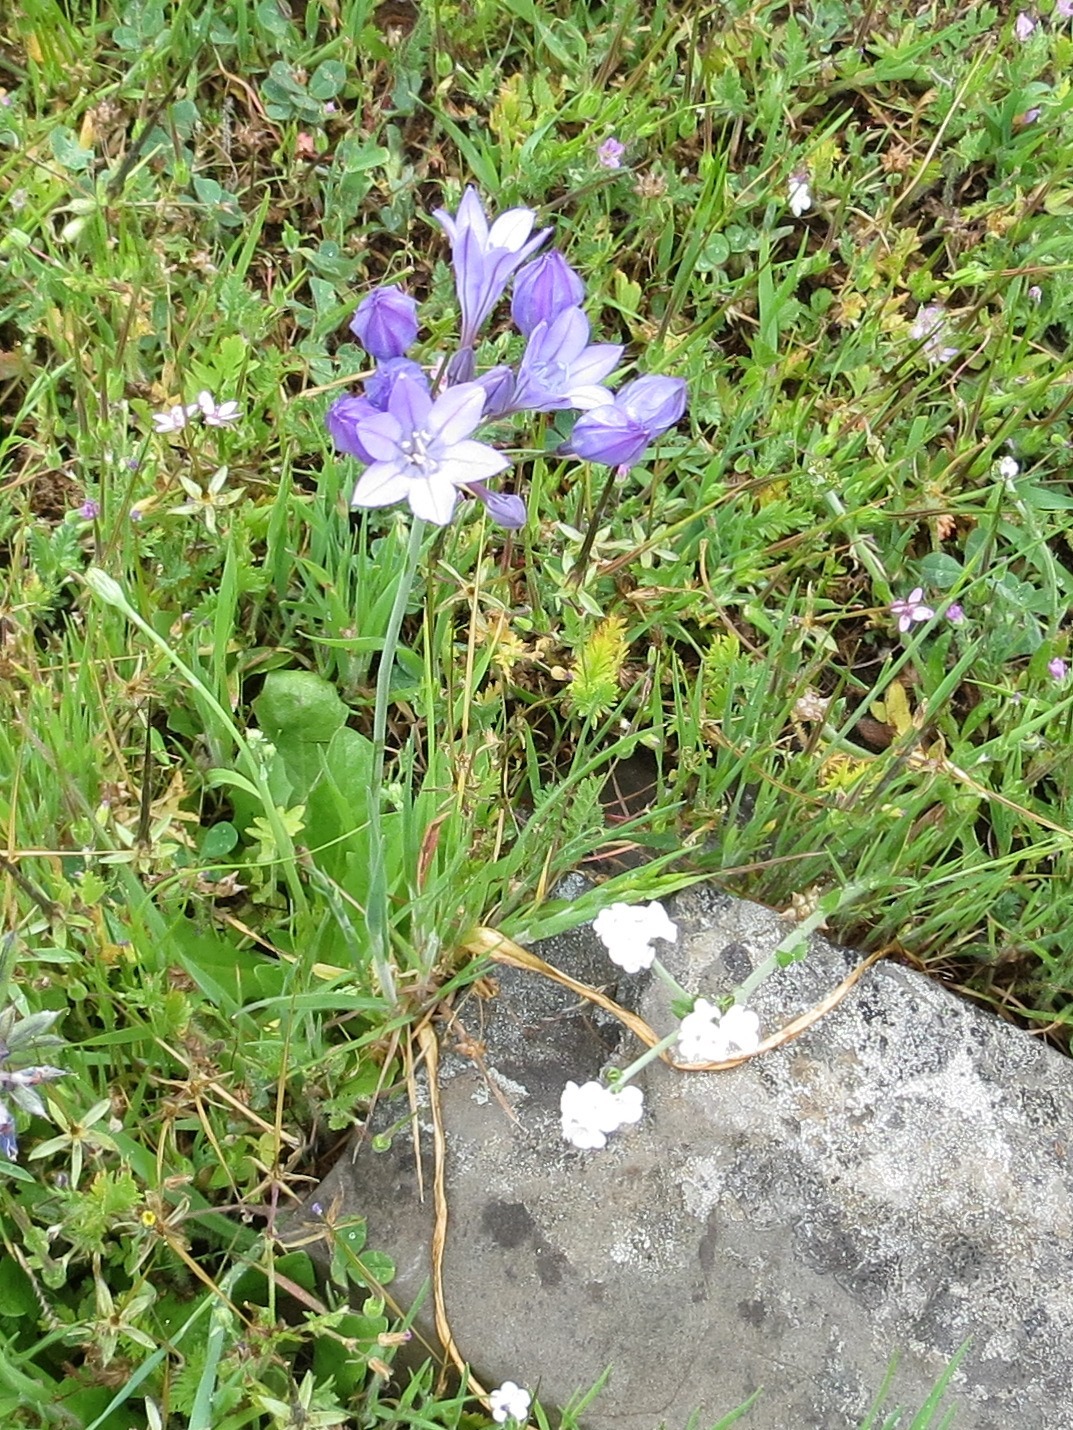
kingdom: Plantae
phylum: Tracheophyta
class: Liliopsida
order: Asparagales
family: Asparagaceae
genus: Triteleia
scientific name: Triteleia laxa
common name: Triplet-lily
